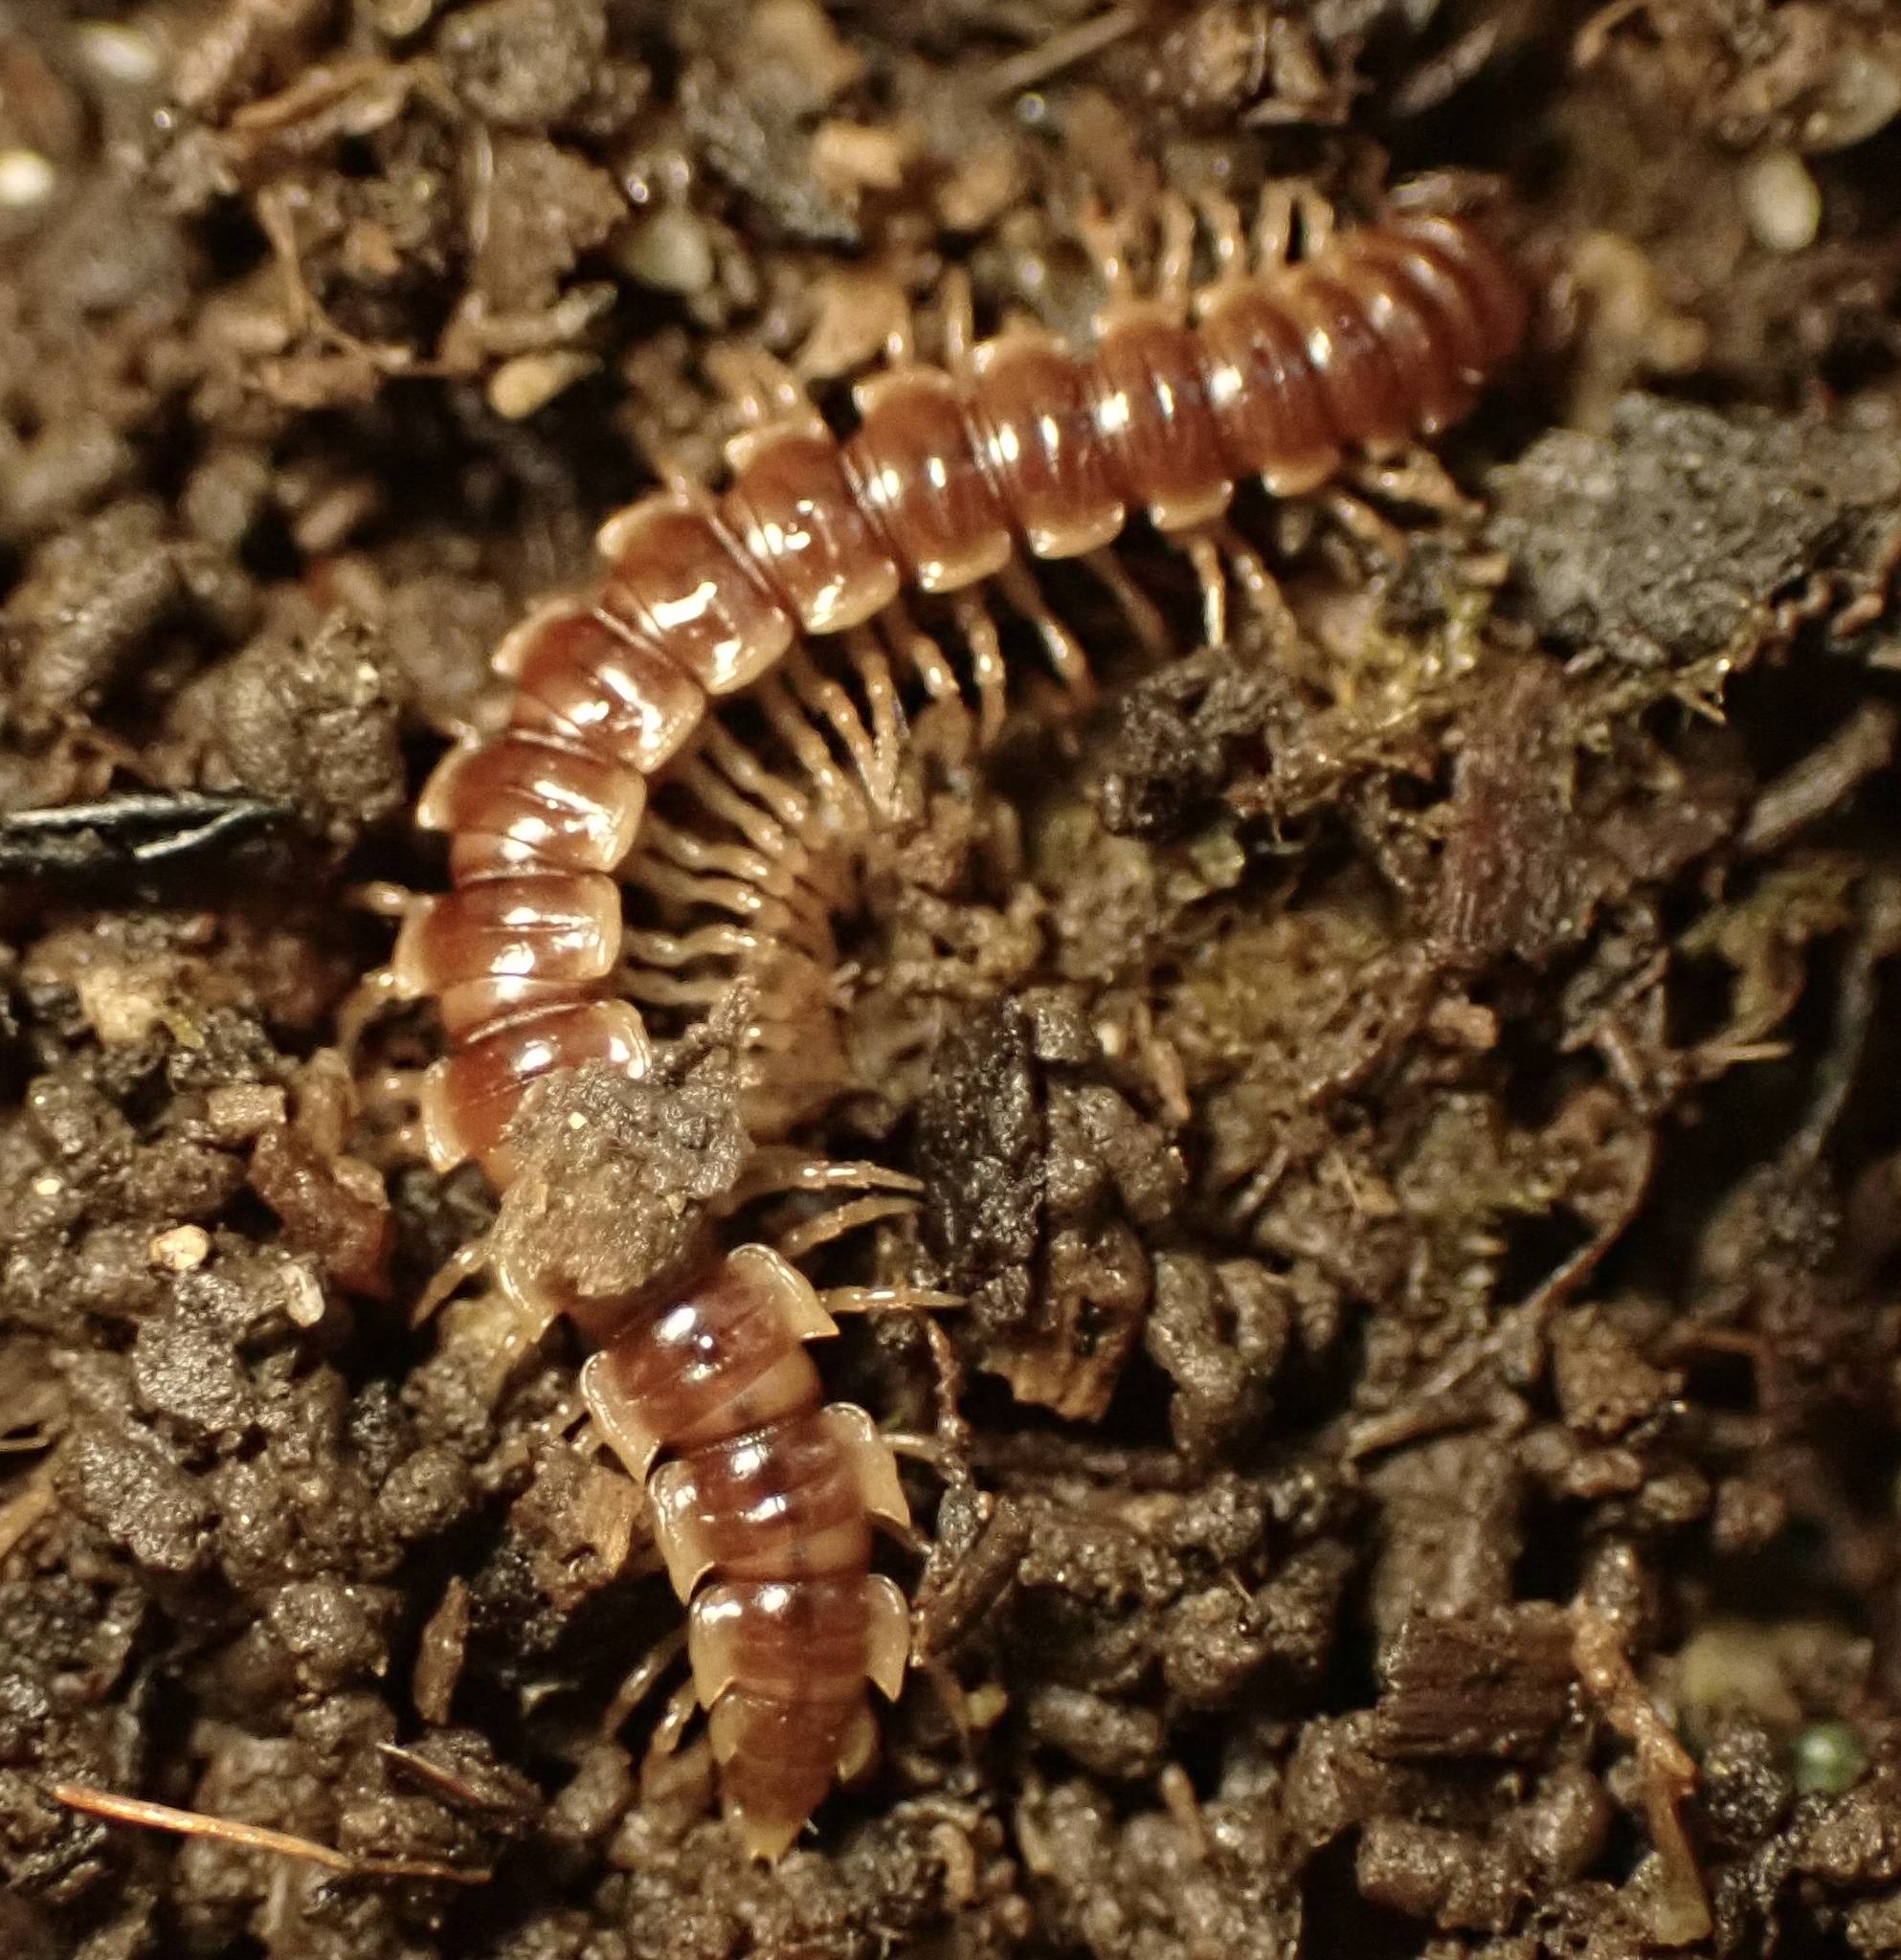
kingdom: Animalia
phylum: Arthropoda
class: Diplopoda
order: Polydesmida
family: Paradoxosomatidae
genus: Oxidus
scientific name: Oxidus gracilis
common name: Greenhouse millipede
